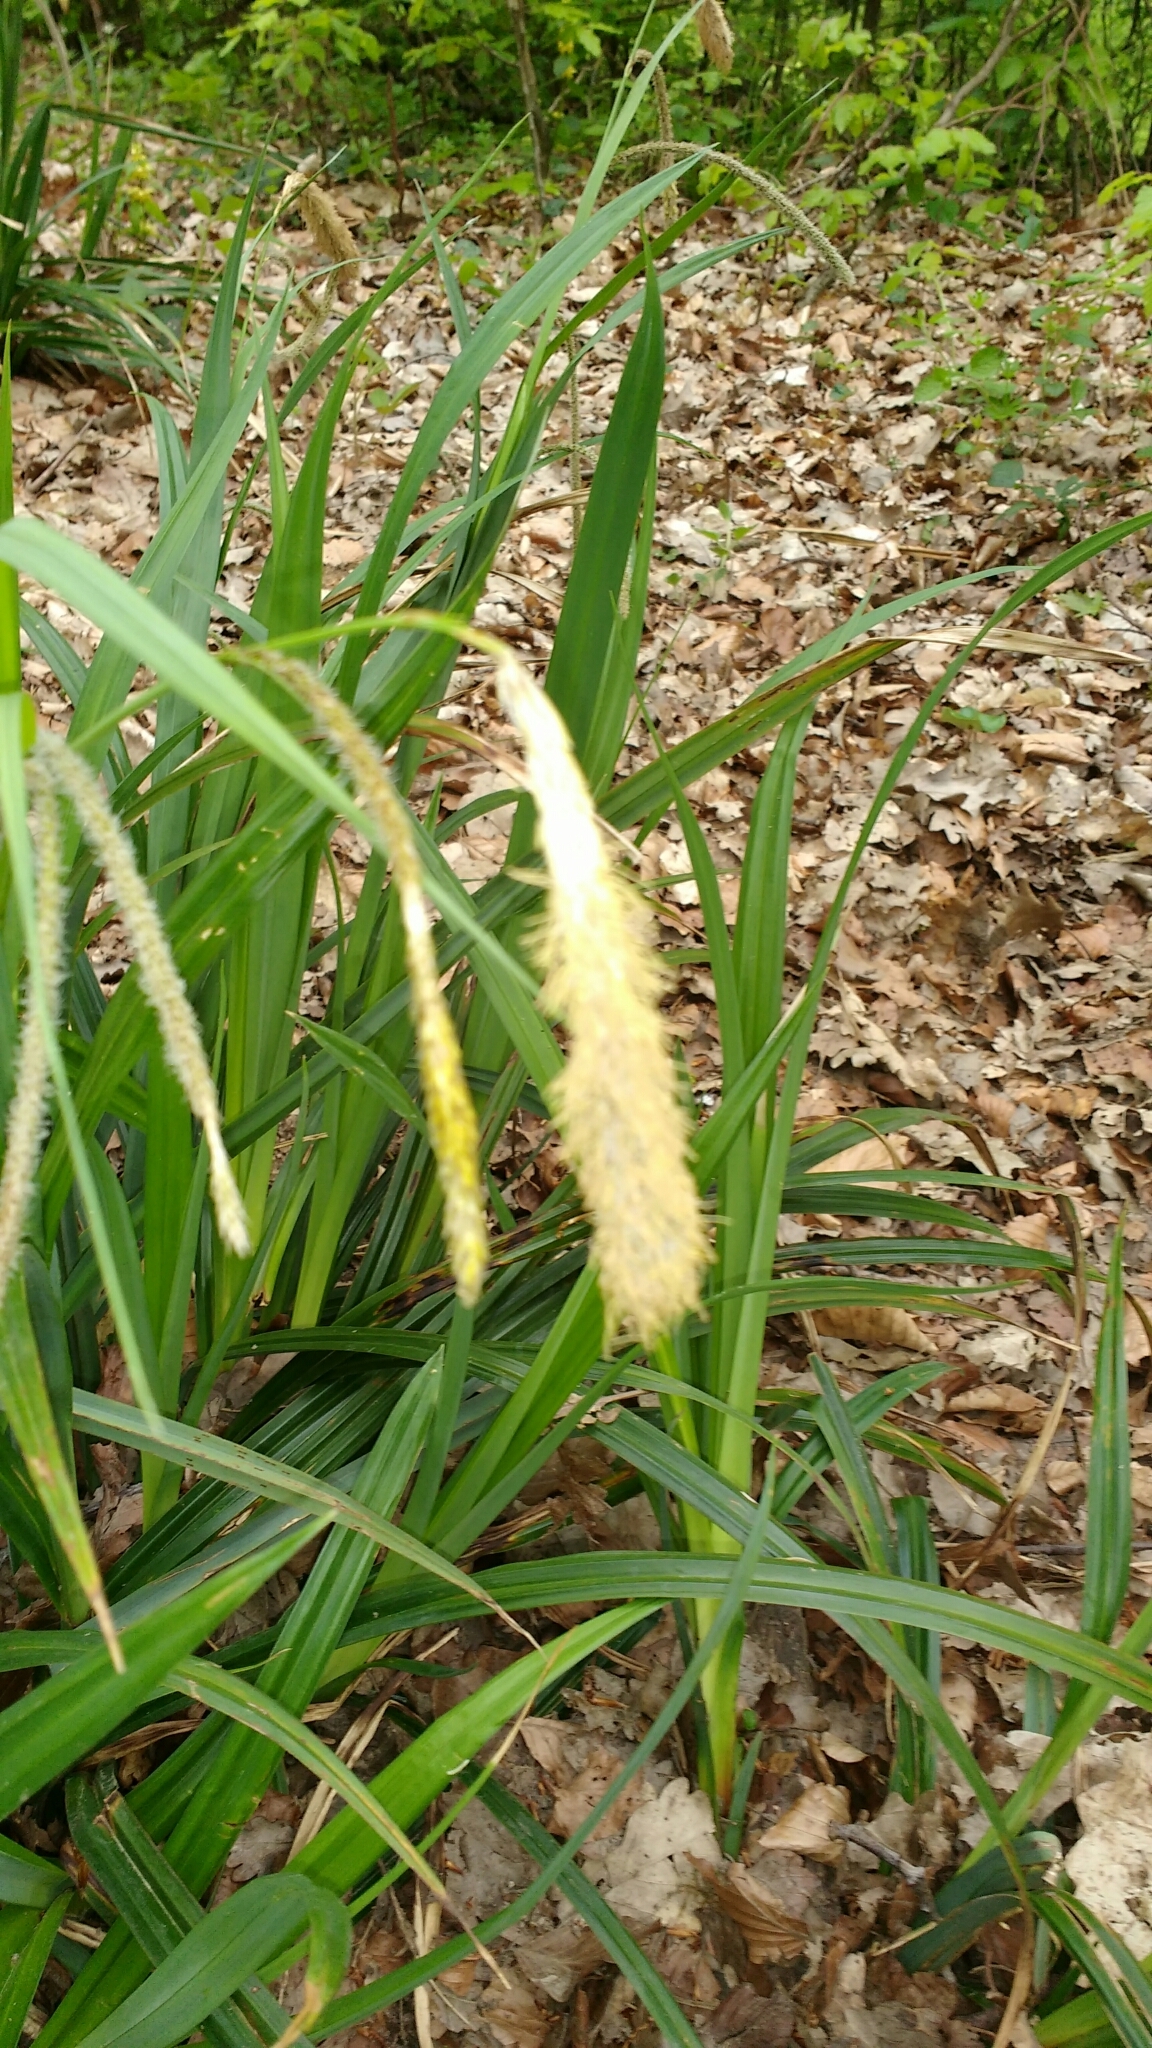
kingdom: Plantae
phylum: Tracheophyta
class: Liliopsida
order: Poales
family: Cyperaceae
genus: Carex
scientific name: Carex pendula
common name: Pendulous sedge
